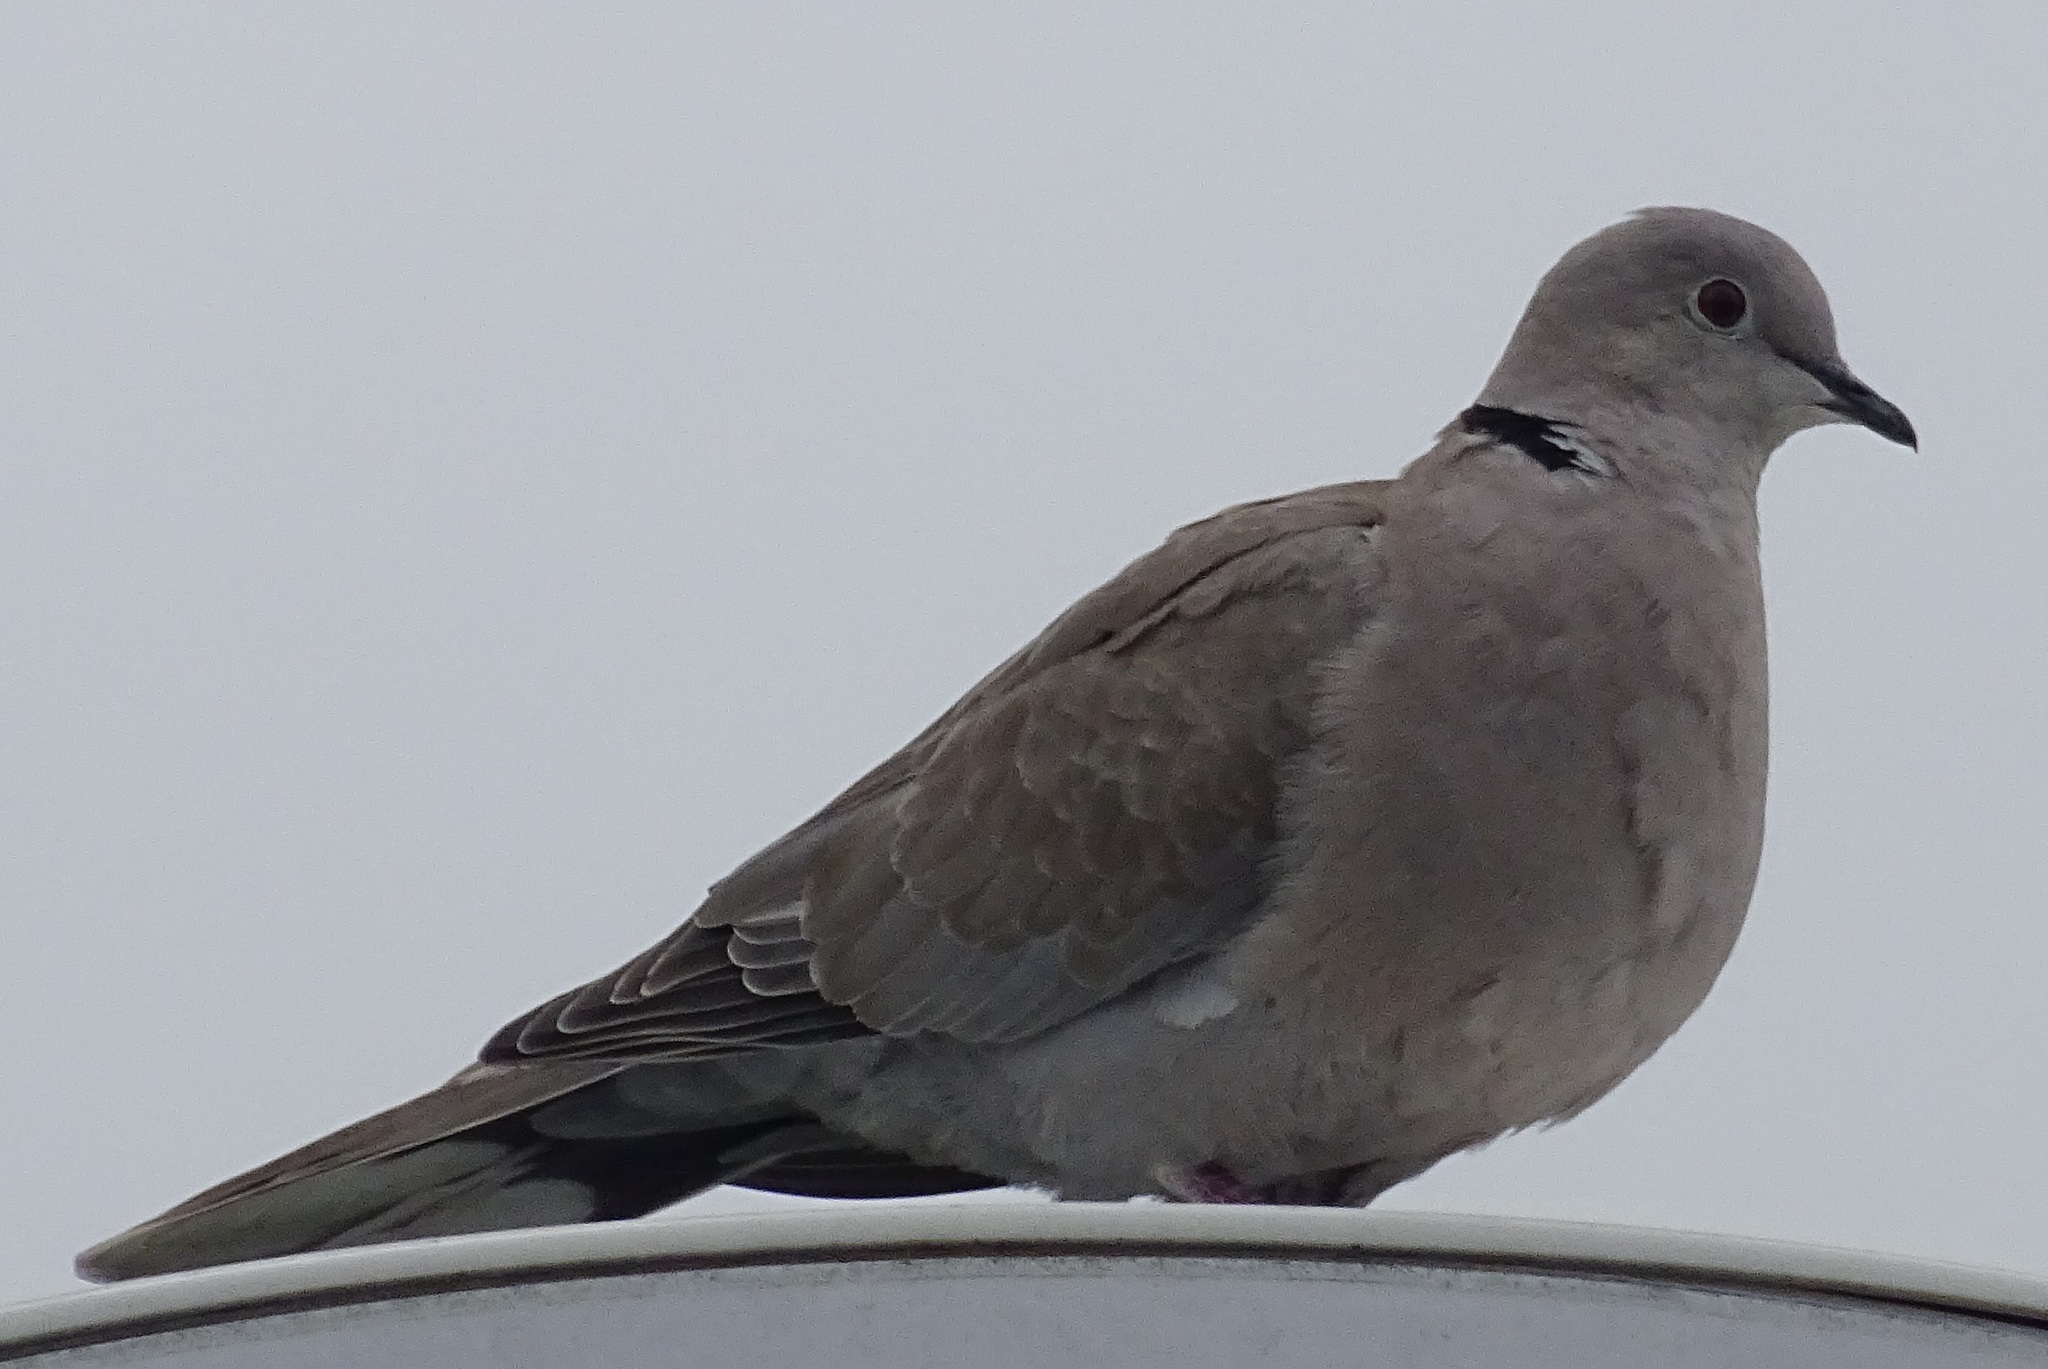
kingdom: Animalia
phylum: Chordata
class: Aves
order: Columbiformes
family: Columbidae
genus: Streptopelia
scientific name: Streptopelia decaocto
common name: Eurasian collared dove
